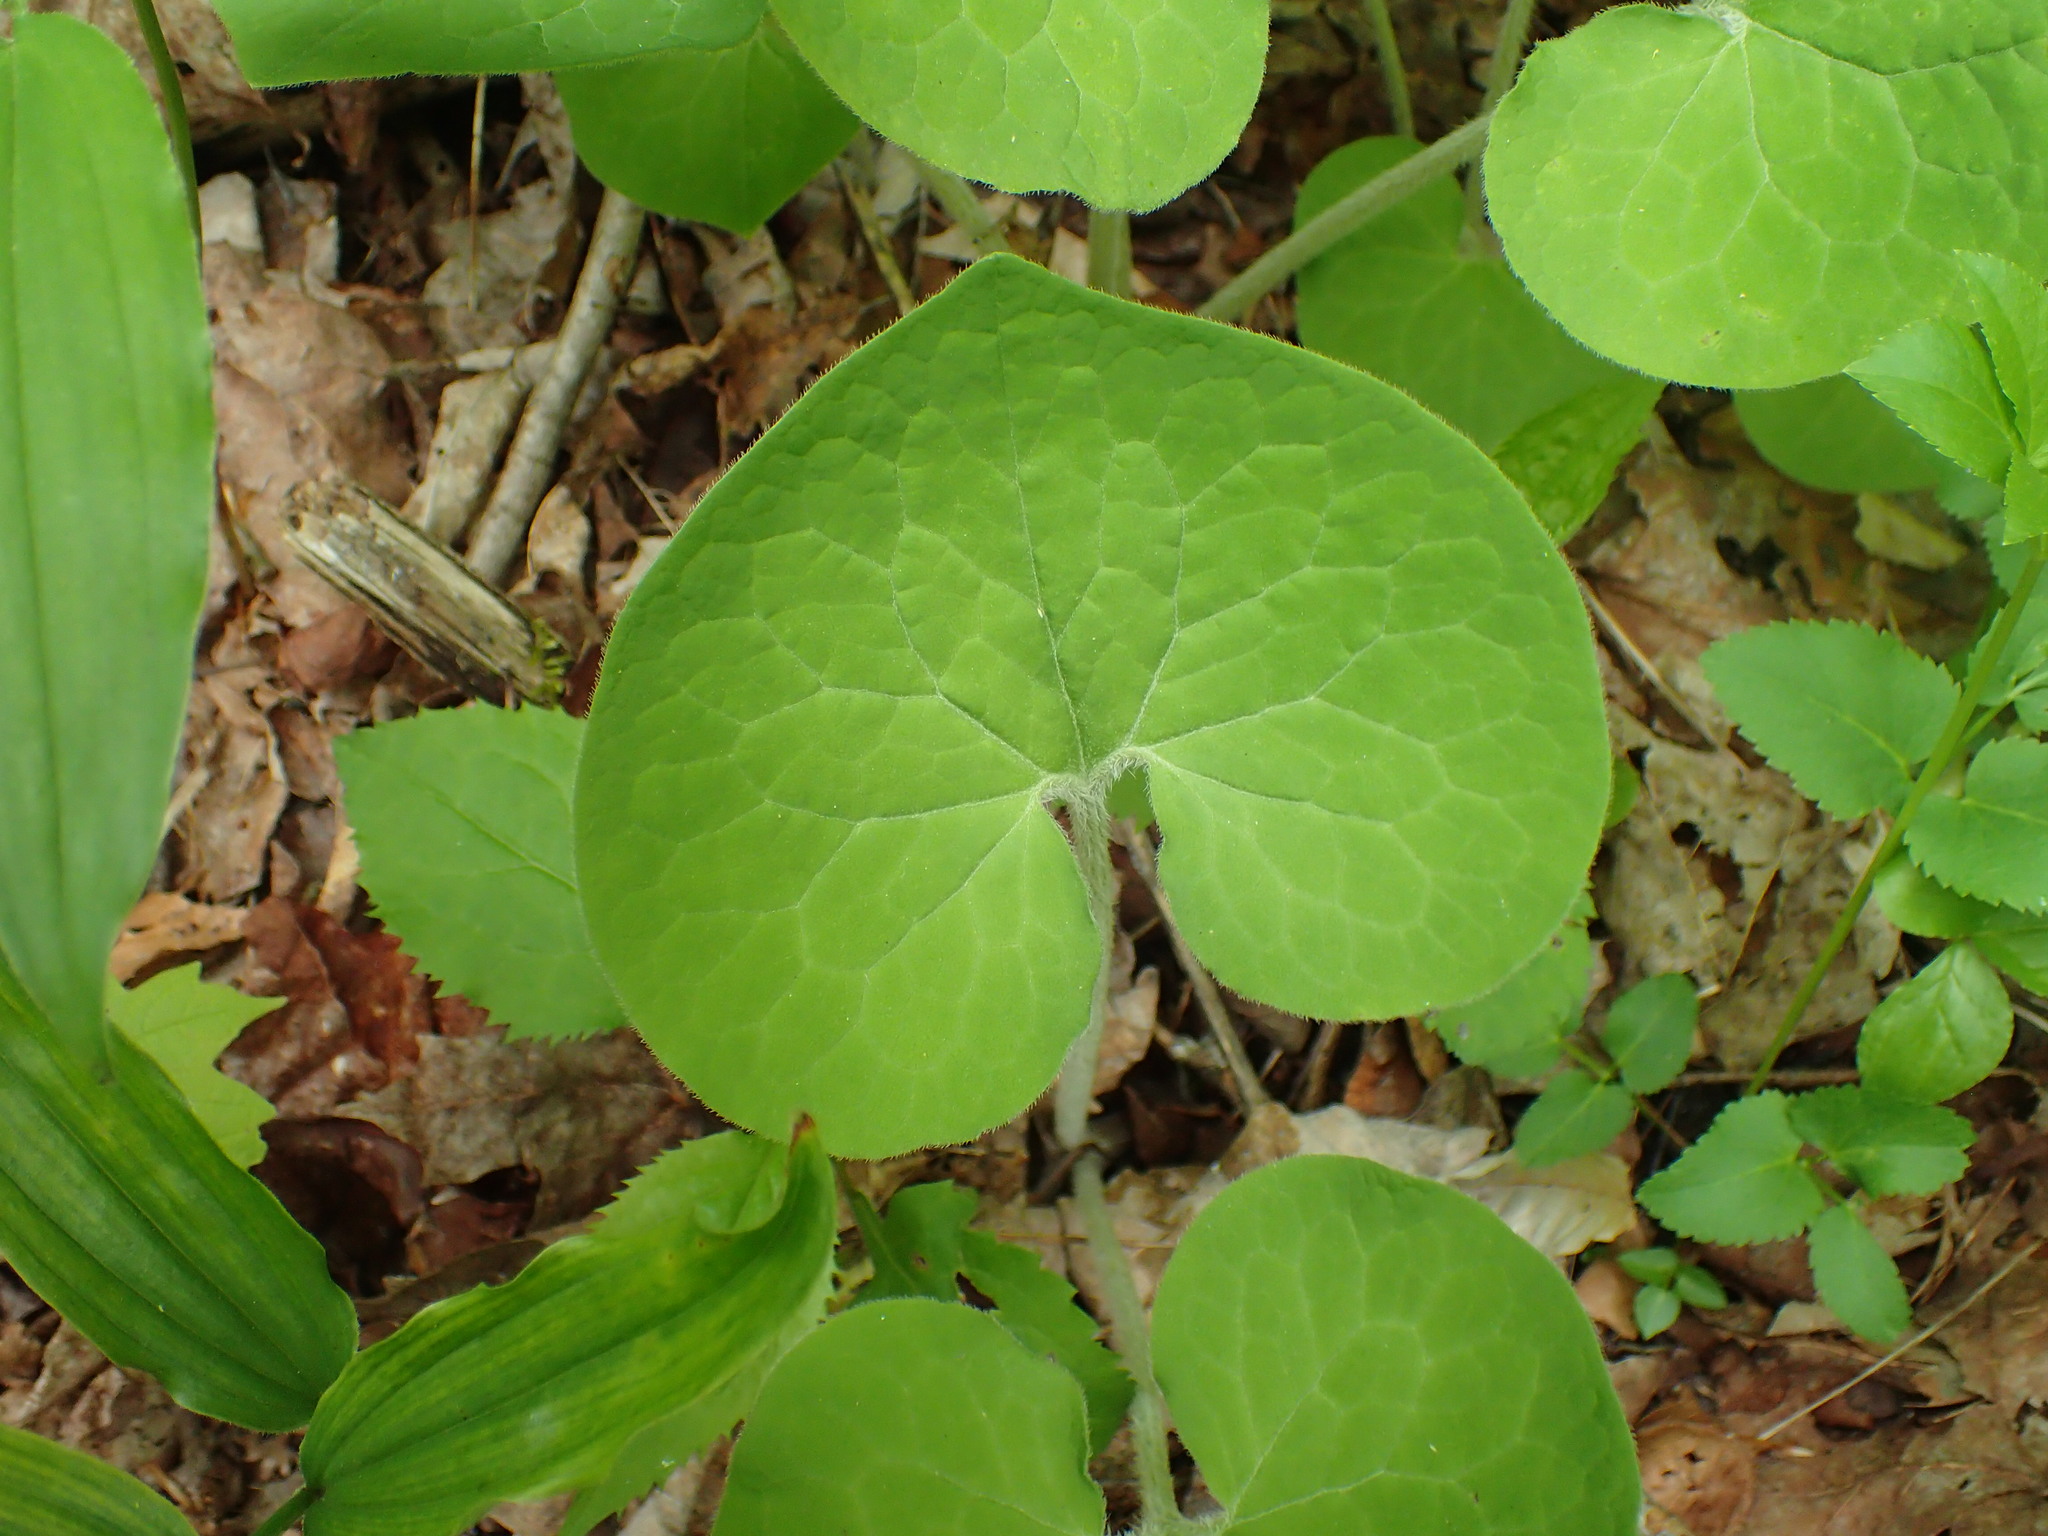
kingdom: Plantae
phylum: Tracheophyta
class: Magnoliopsida
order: Piperales
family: Aristolochiaceae
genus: Asarum
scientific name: Asarum canadense
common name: Wild ginger
